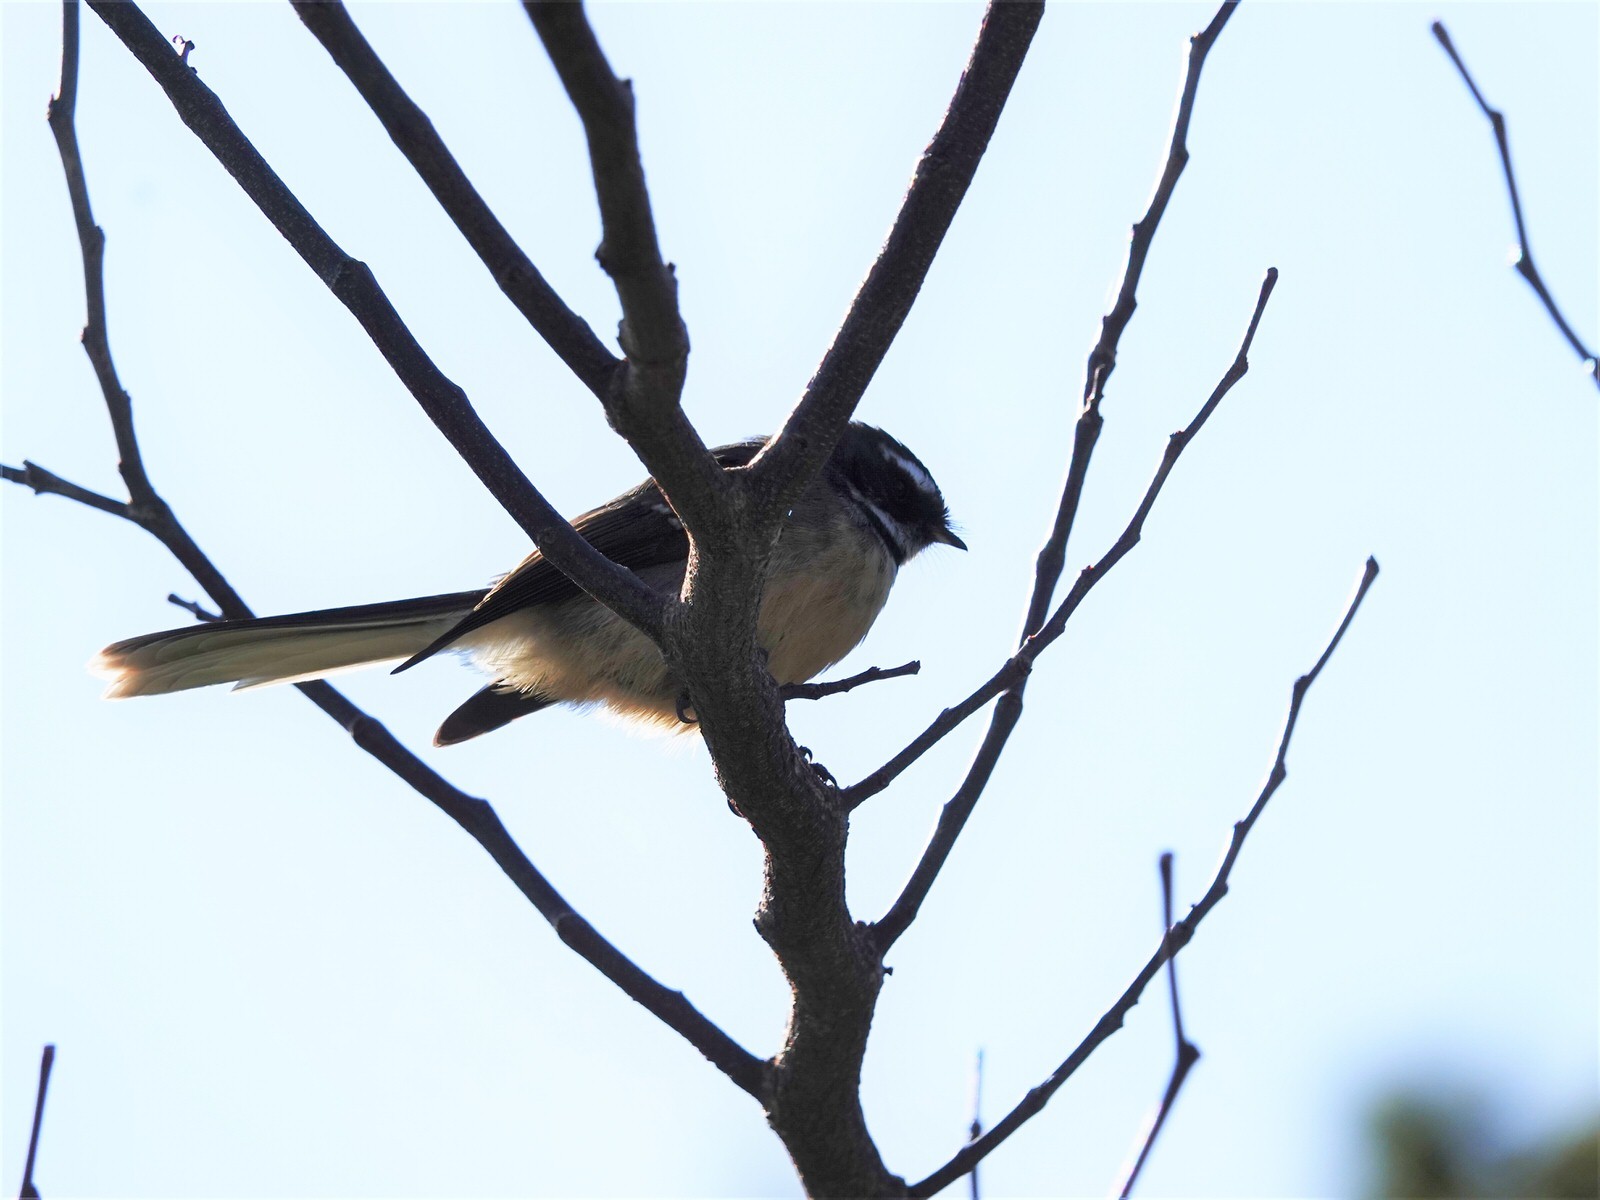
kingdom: Animalia
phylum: Chordata
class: Aves
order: Passeriformes
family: Rhipiduridae
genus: Rhipidura
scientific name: Rhipidura fuliginosa
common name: New zealand fantail
